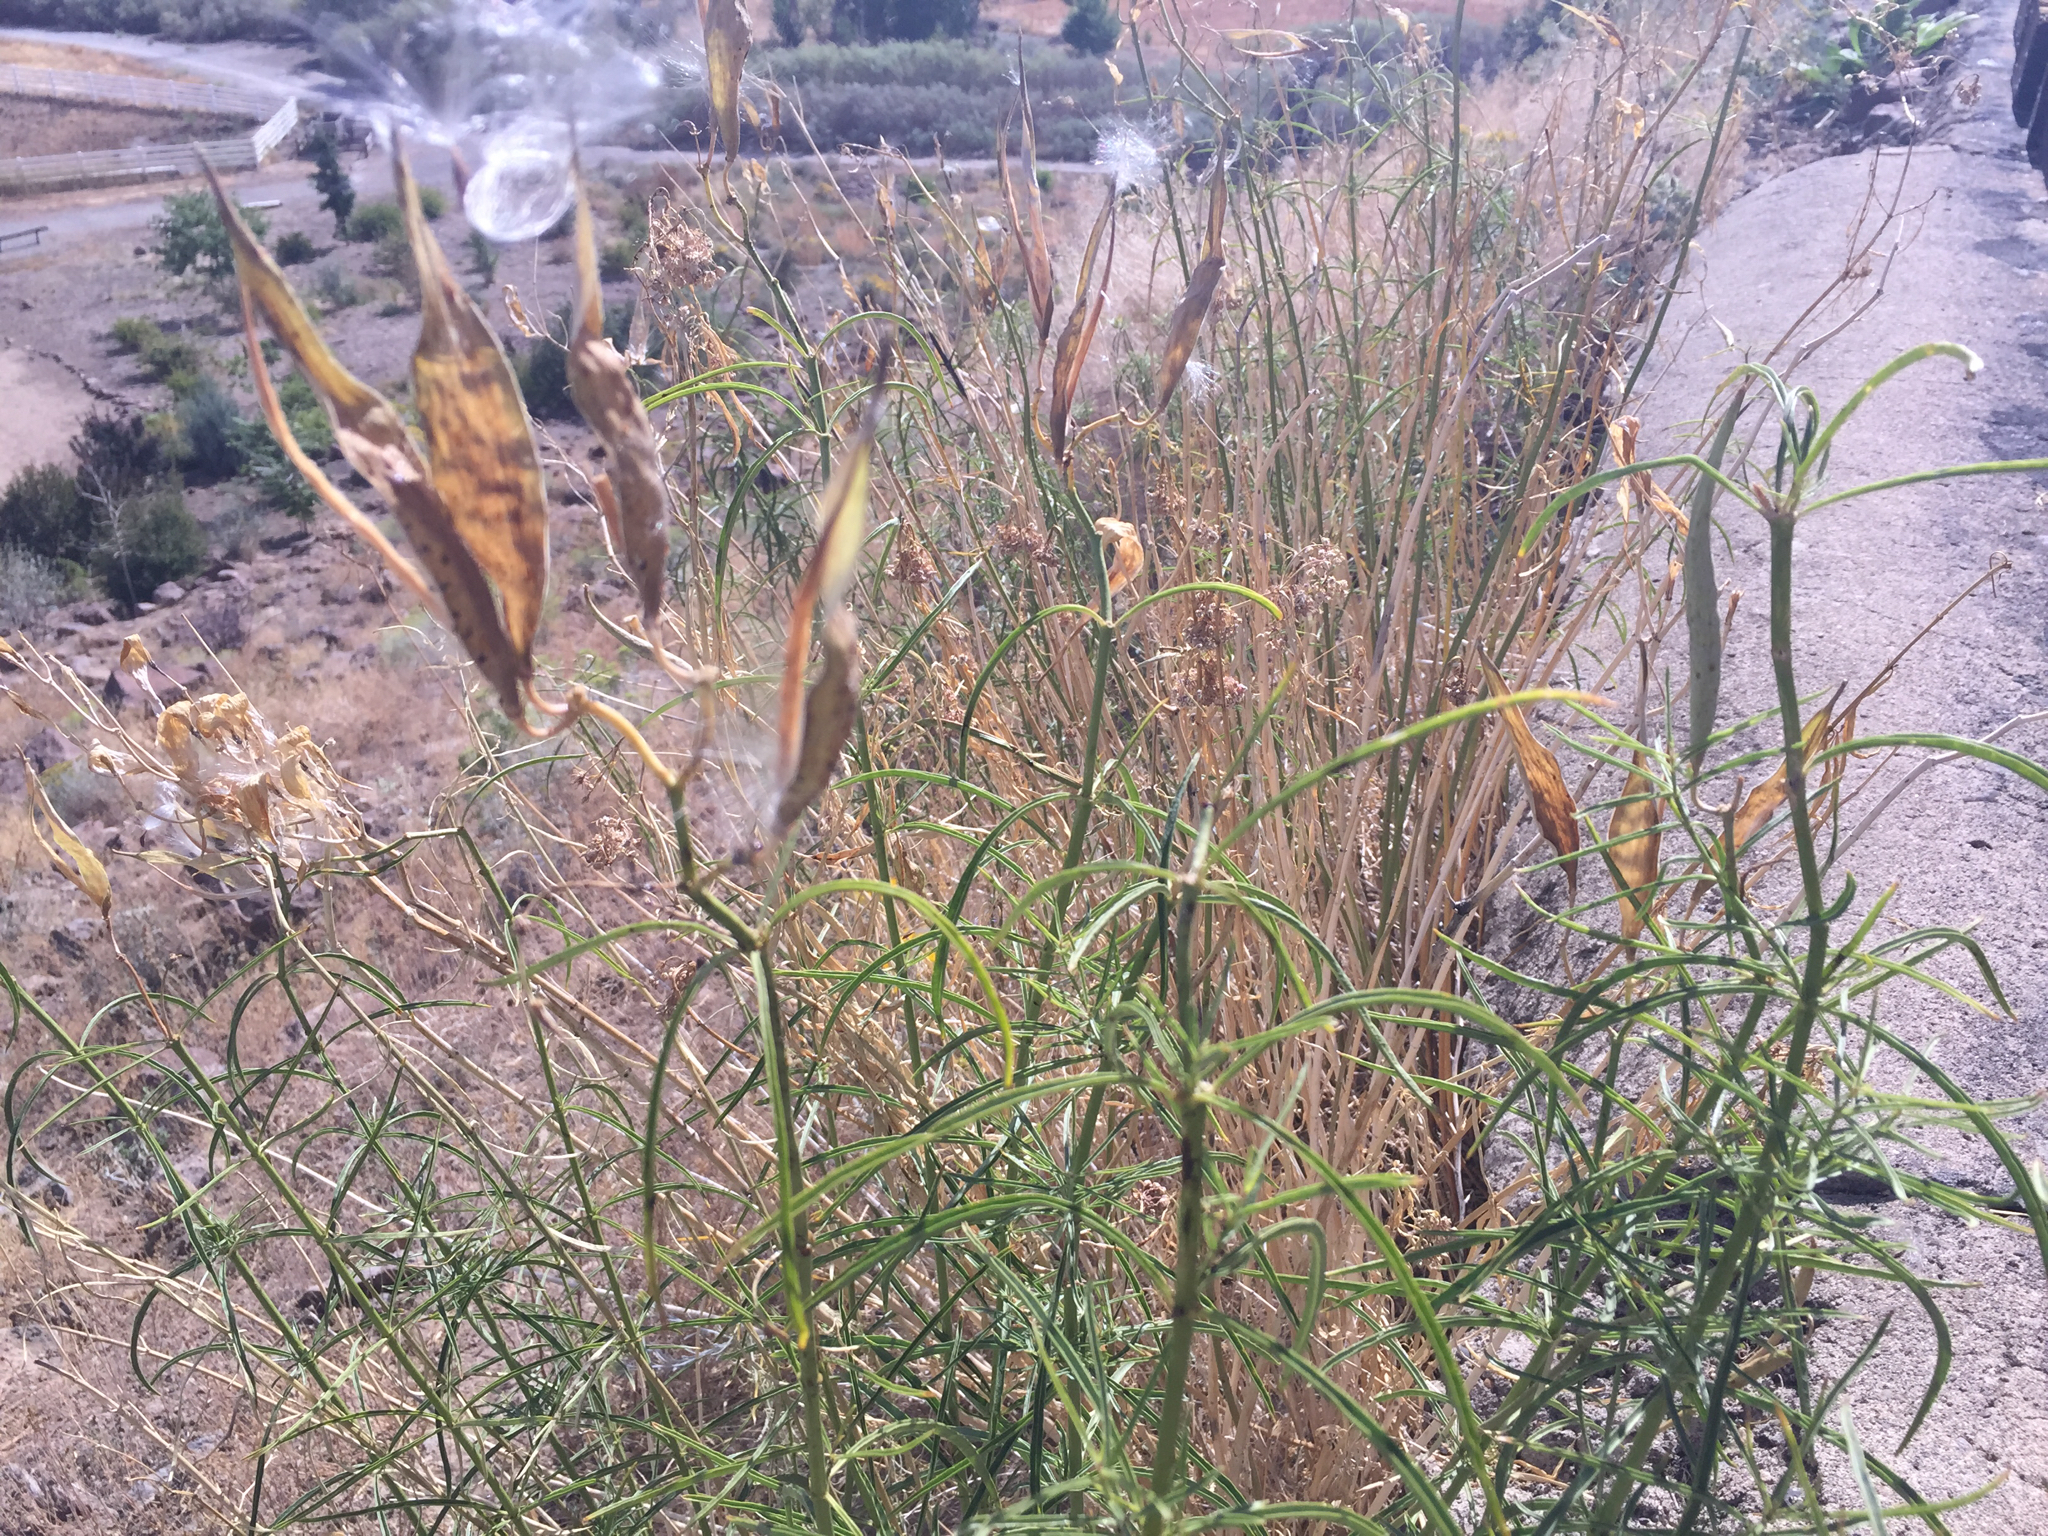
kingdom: Plantae
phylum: Tracheophyta
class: Magnoliopsida
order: Gentianales
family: Apocynaceae
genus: Asclepias
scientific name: Asclepias fascicularis
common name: Mexican milkweed
